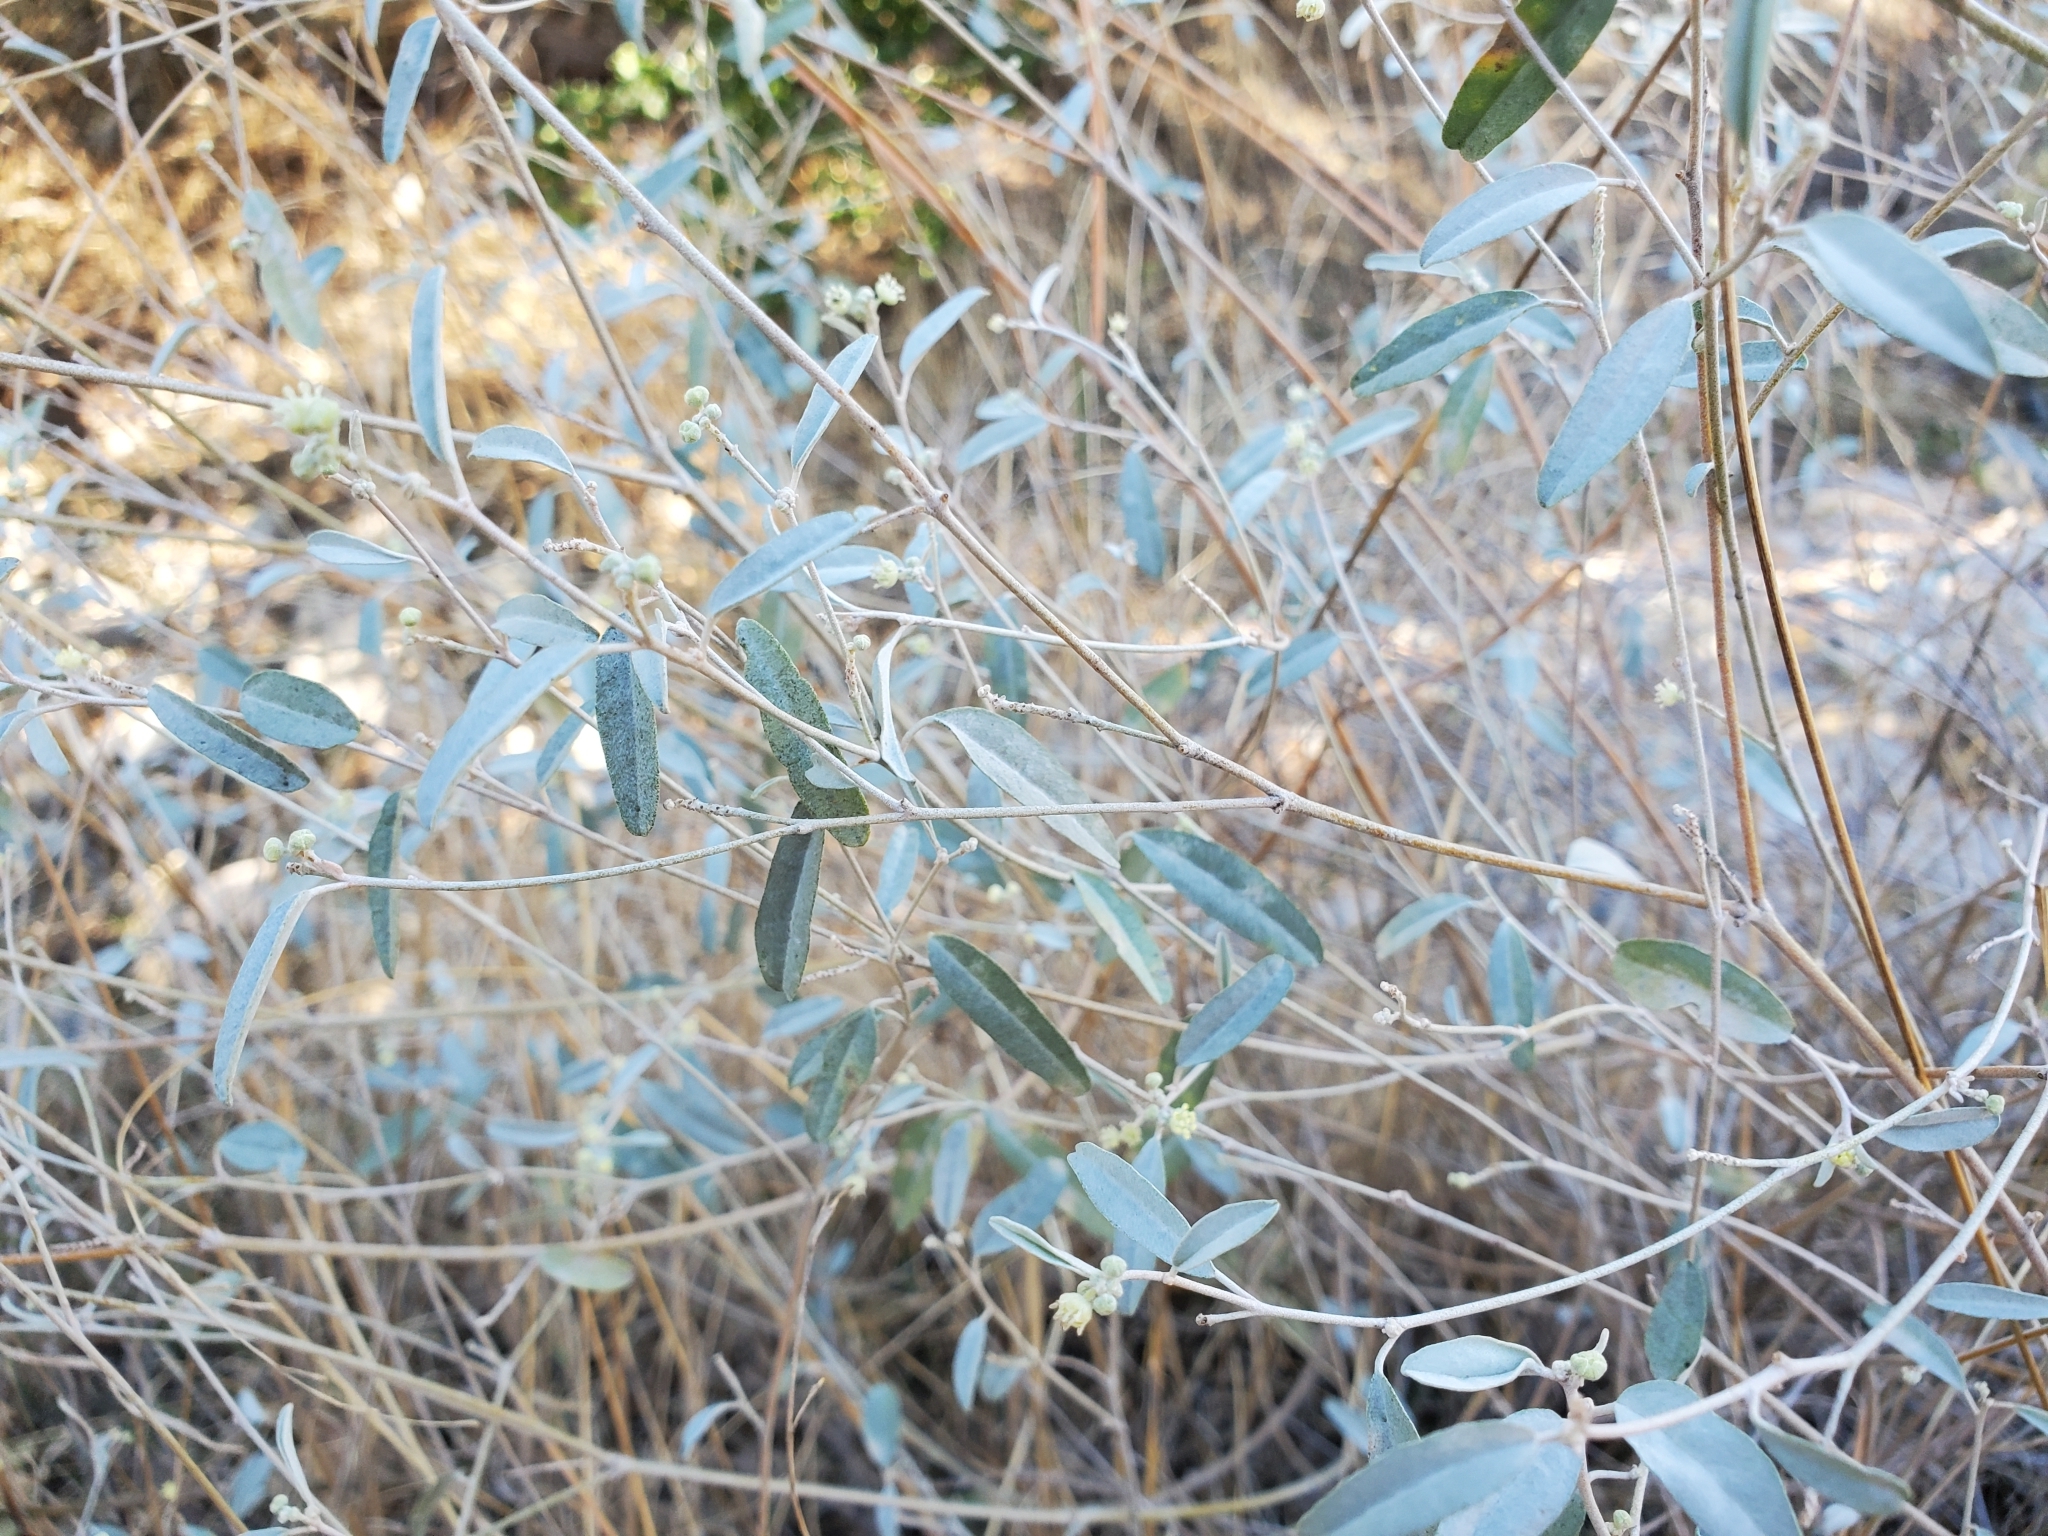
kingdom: Plantae
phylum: Tracheophyta
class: Magnoliopsida
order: Malpighiales
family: Euphorbiaceae
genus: Croton
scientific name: Croton californicus
